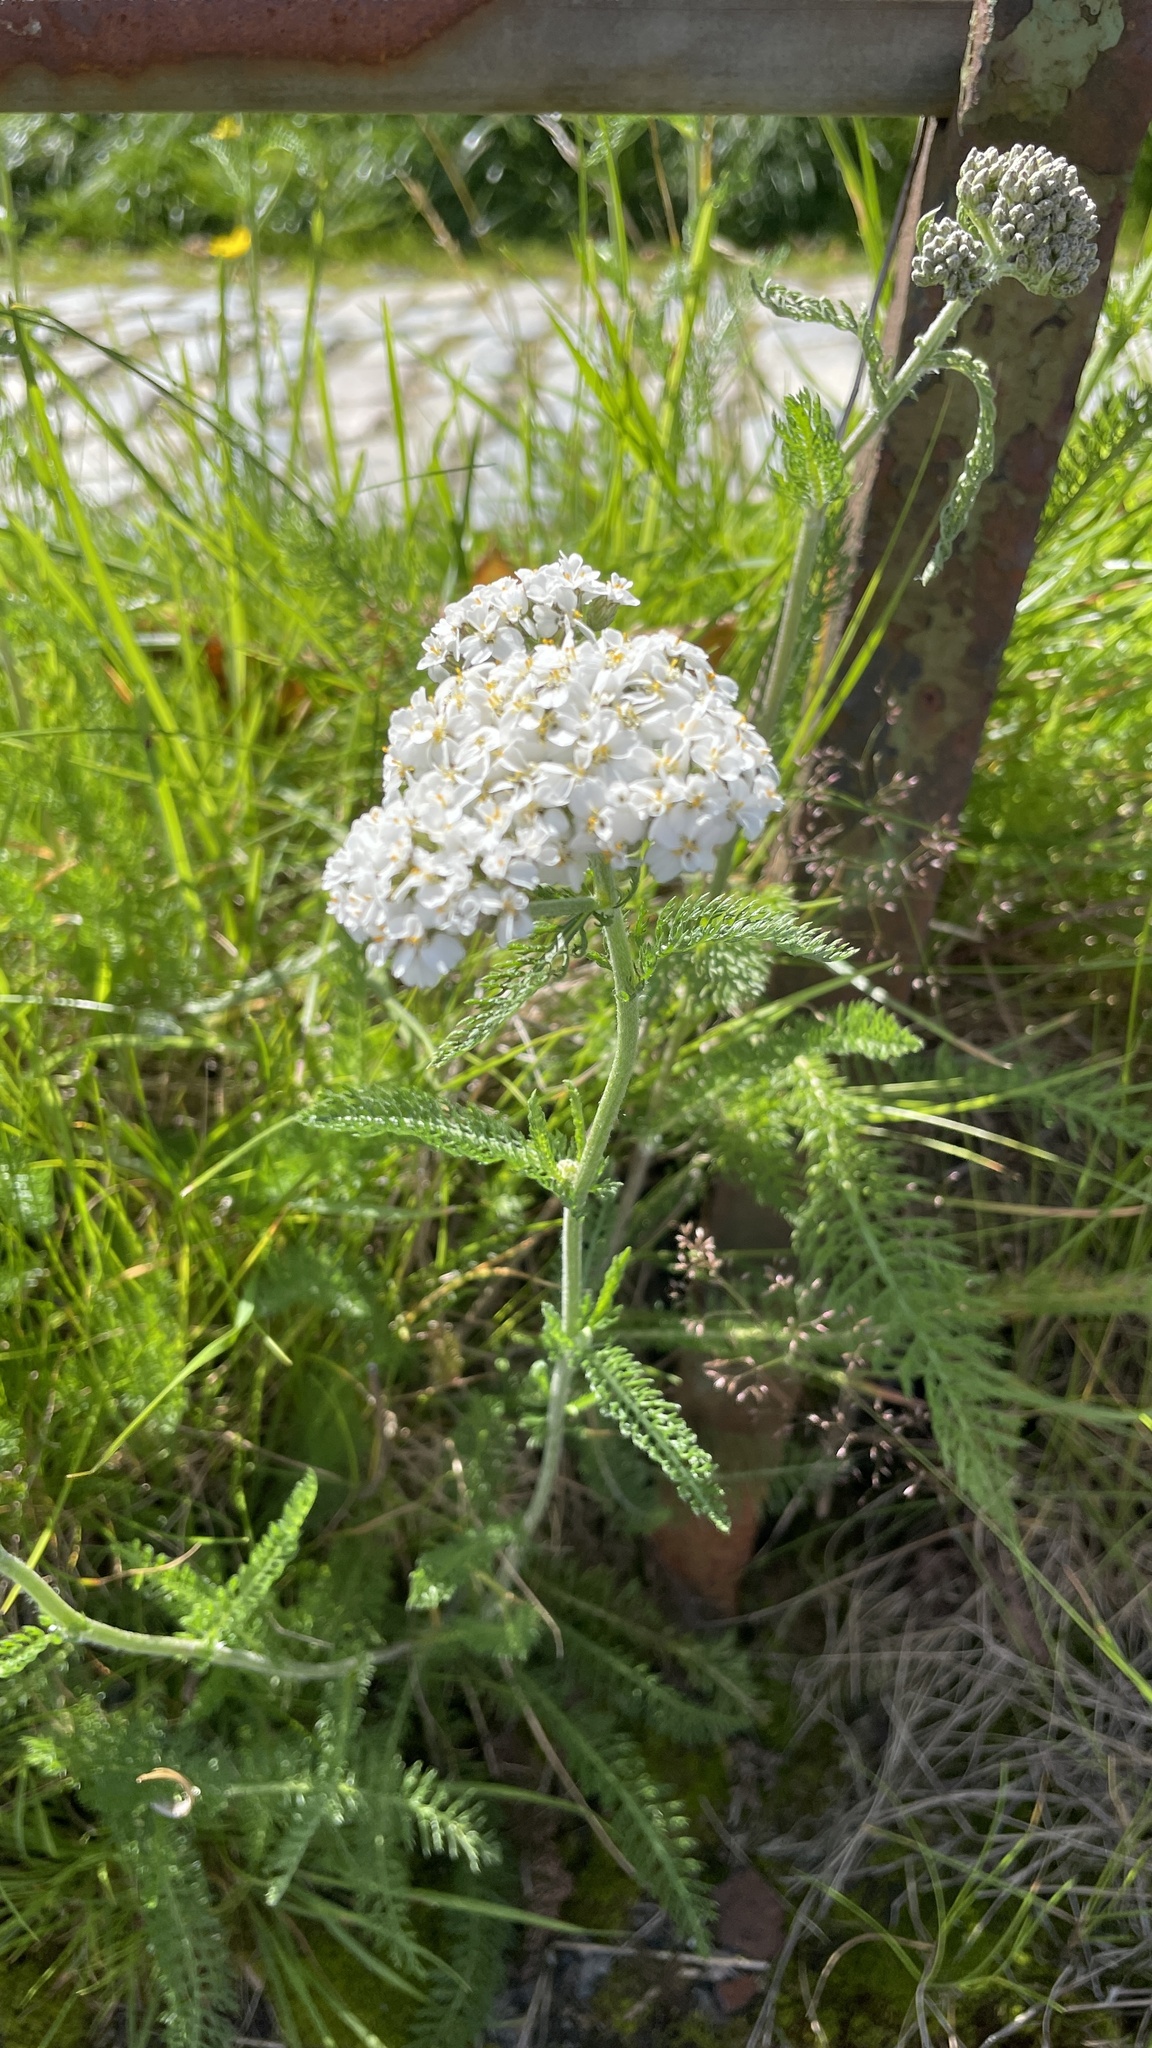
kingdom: Plantae
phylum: Tracheophyta
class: Magnoliopsida
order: Asterales
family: Asteraceae
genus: Achillea
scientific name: Achillea millefolium
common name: Yarrow
